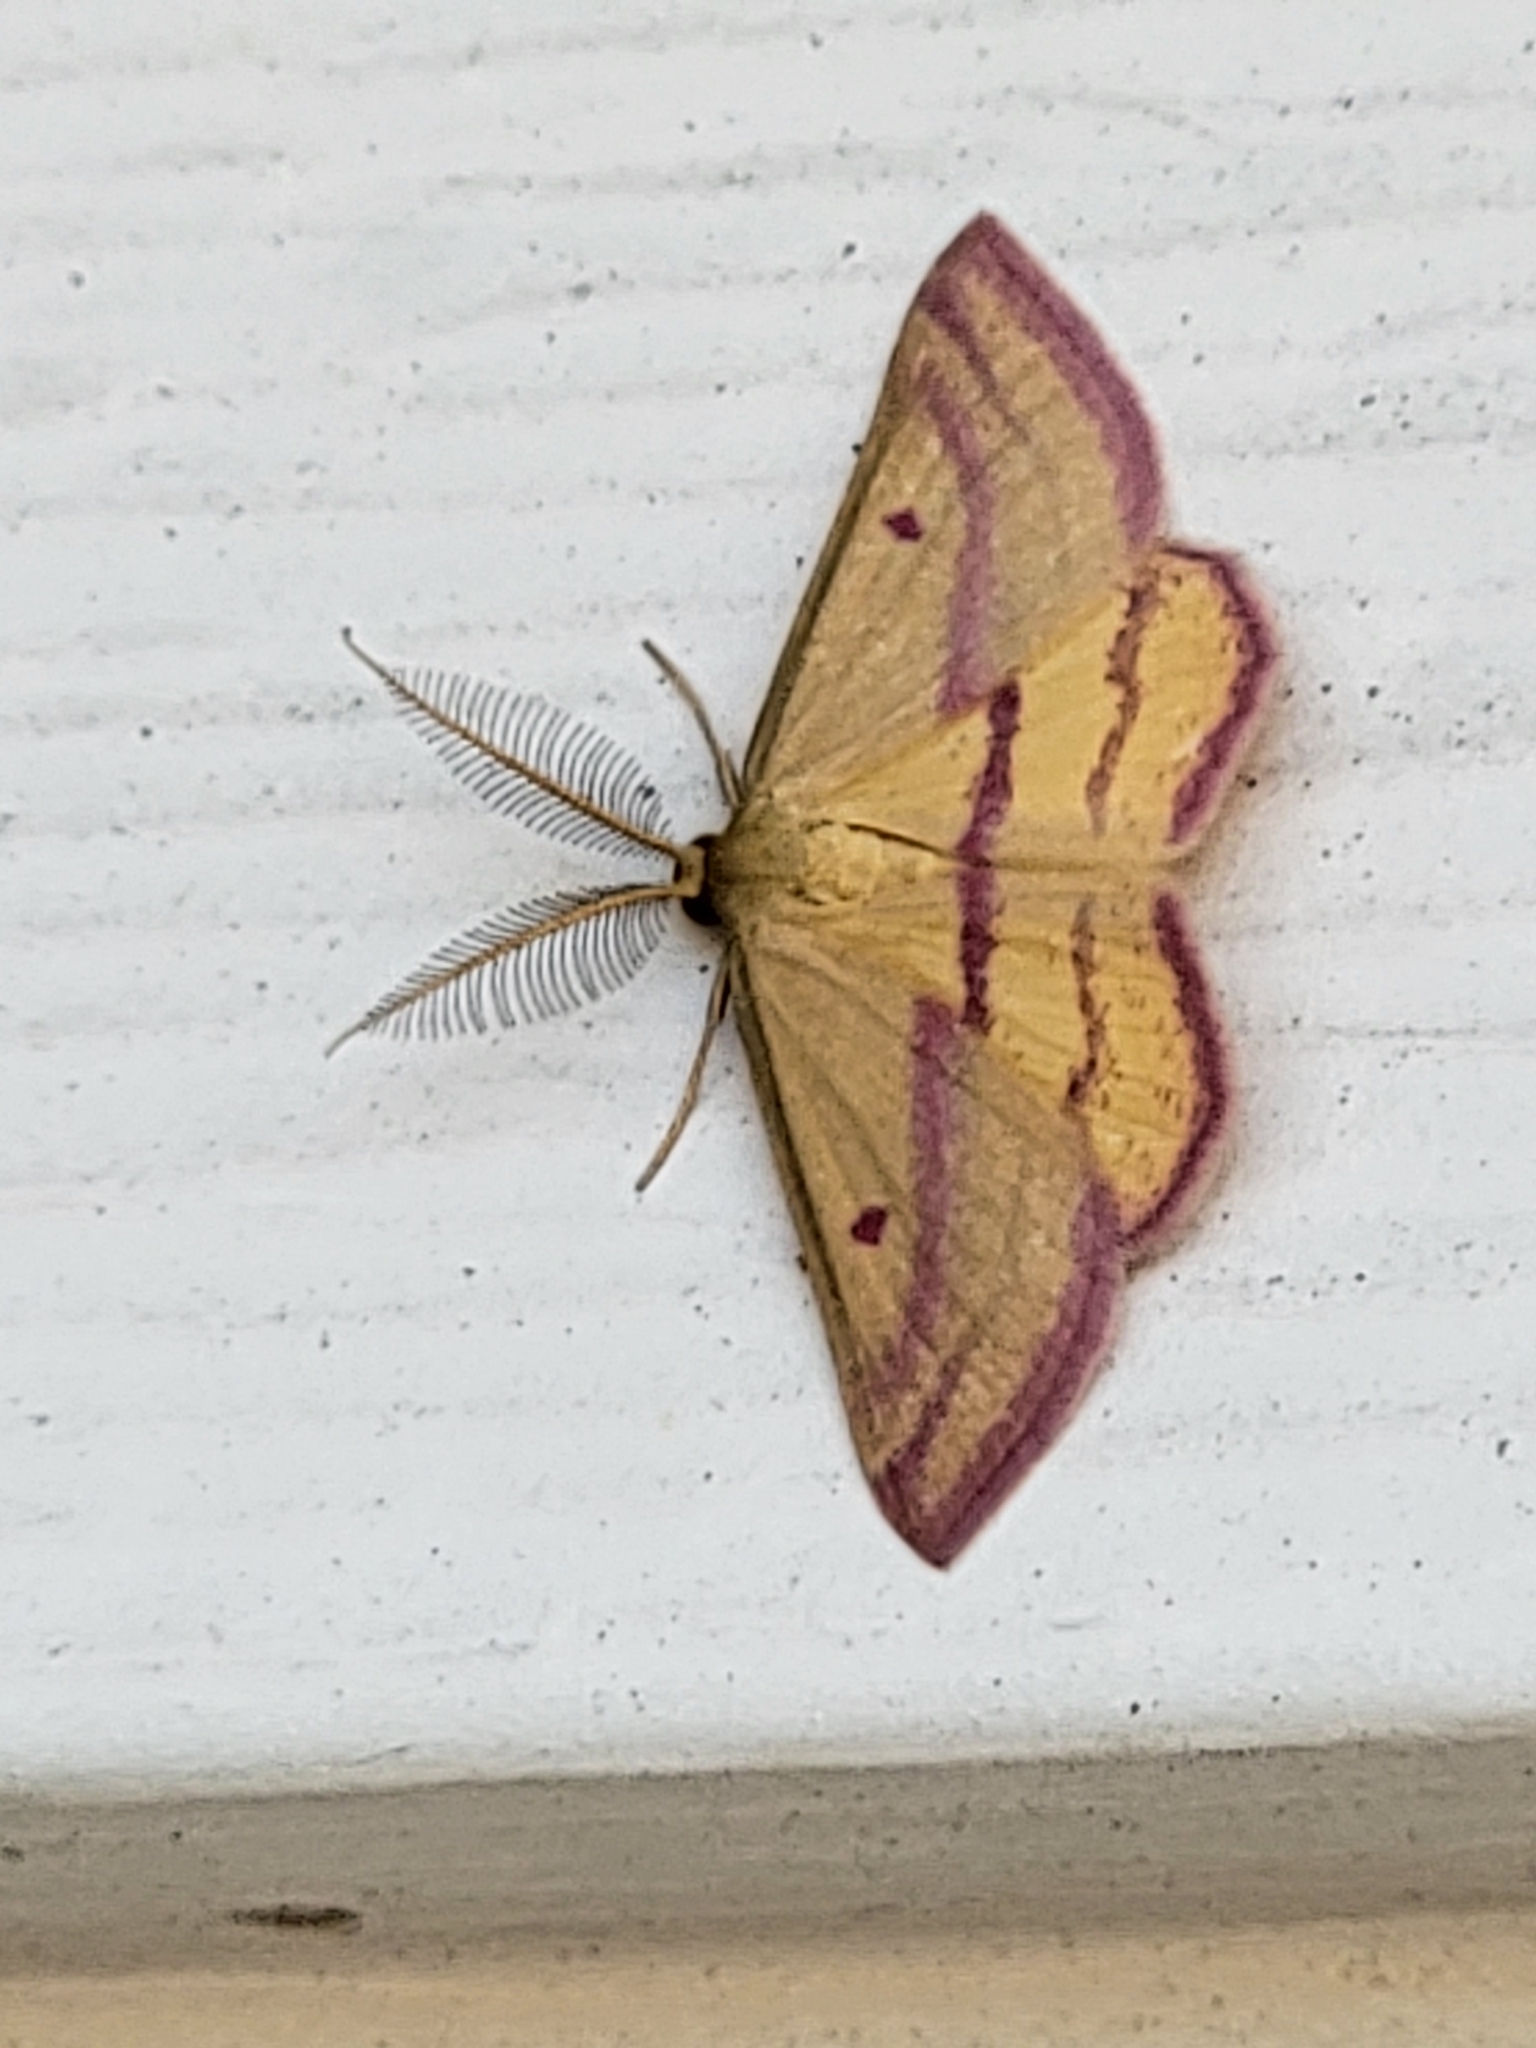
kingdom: Animalia
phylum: Arthropoda
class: Insecta
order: Lepidoptera
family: Geometridae
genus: Haematopis
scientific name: Haematopis grataria
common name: Chickweed geometer
